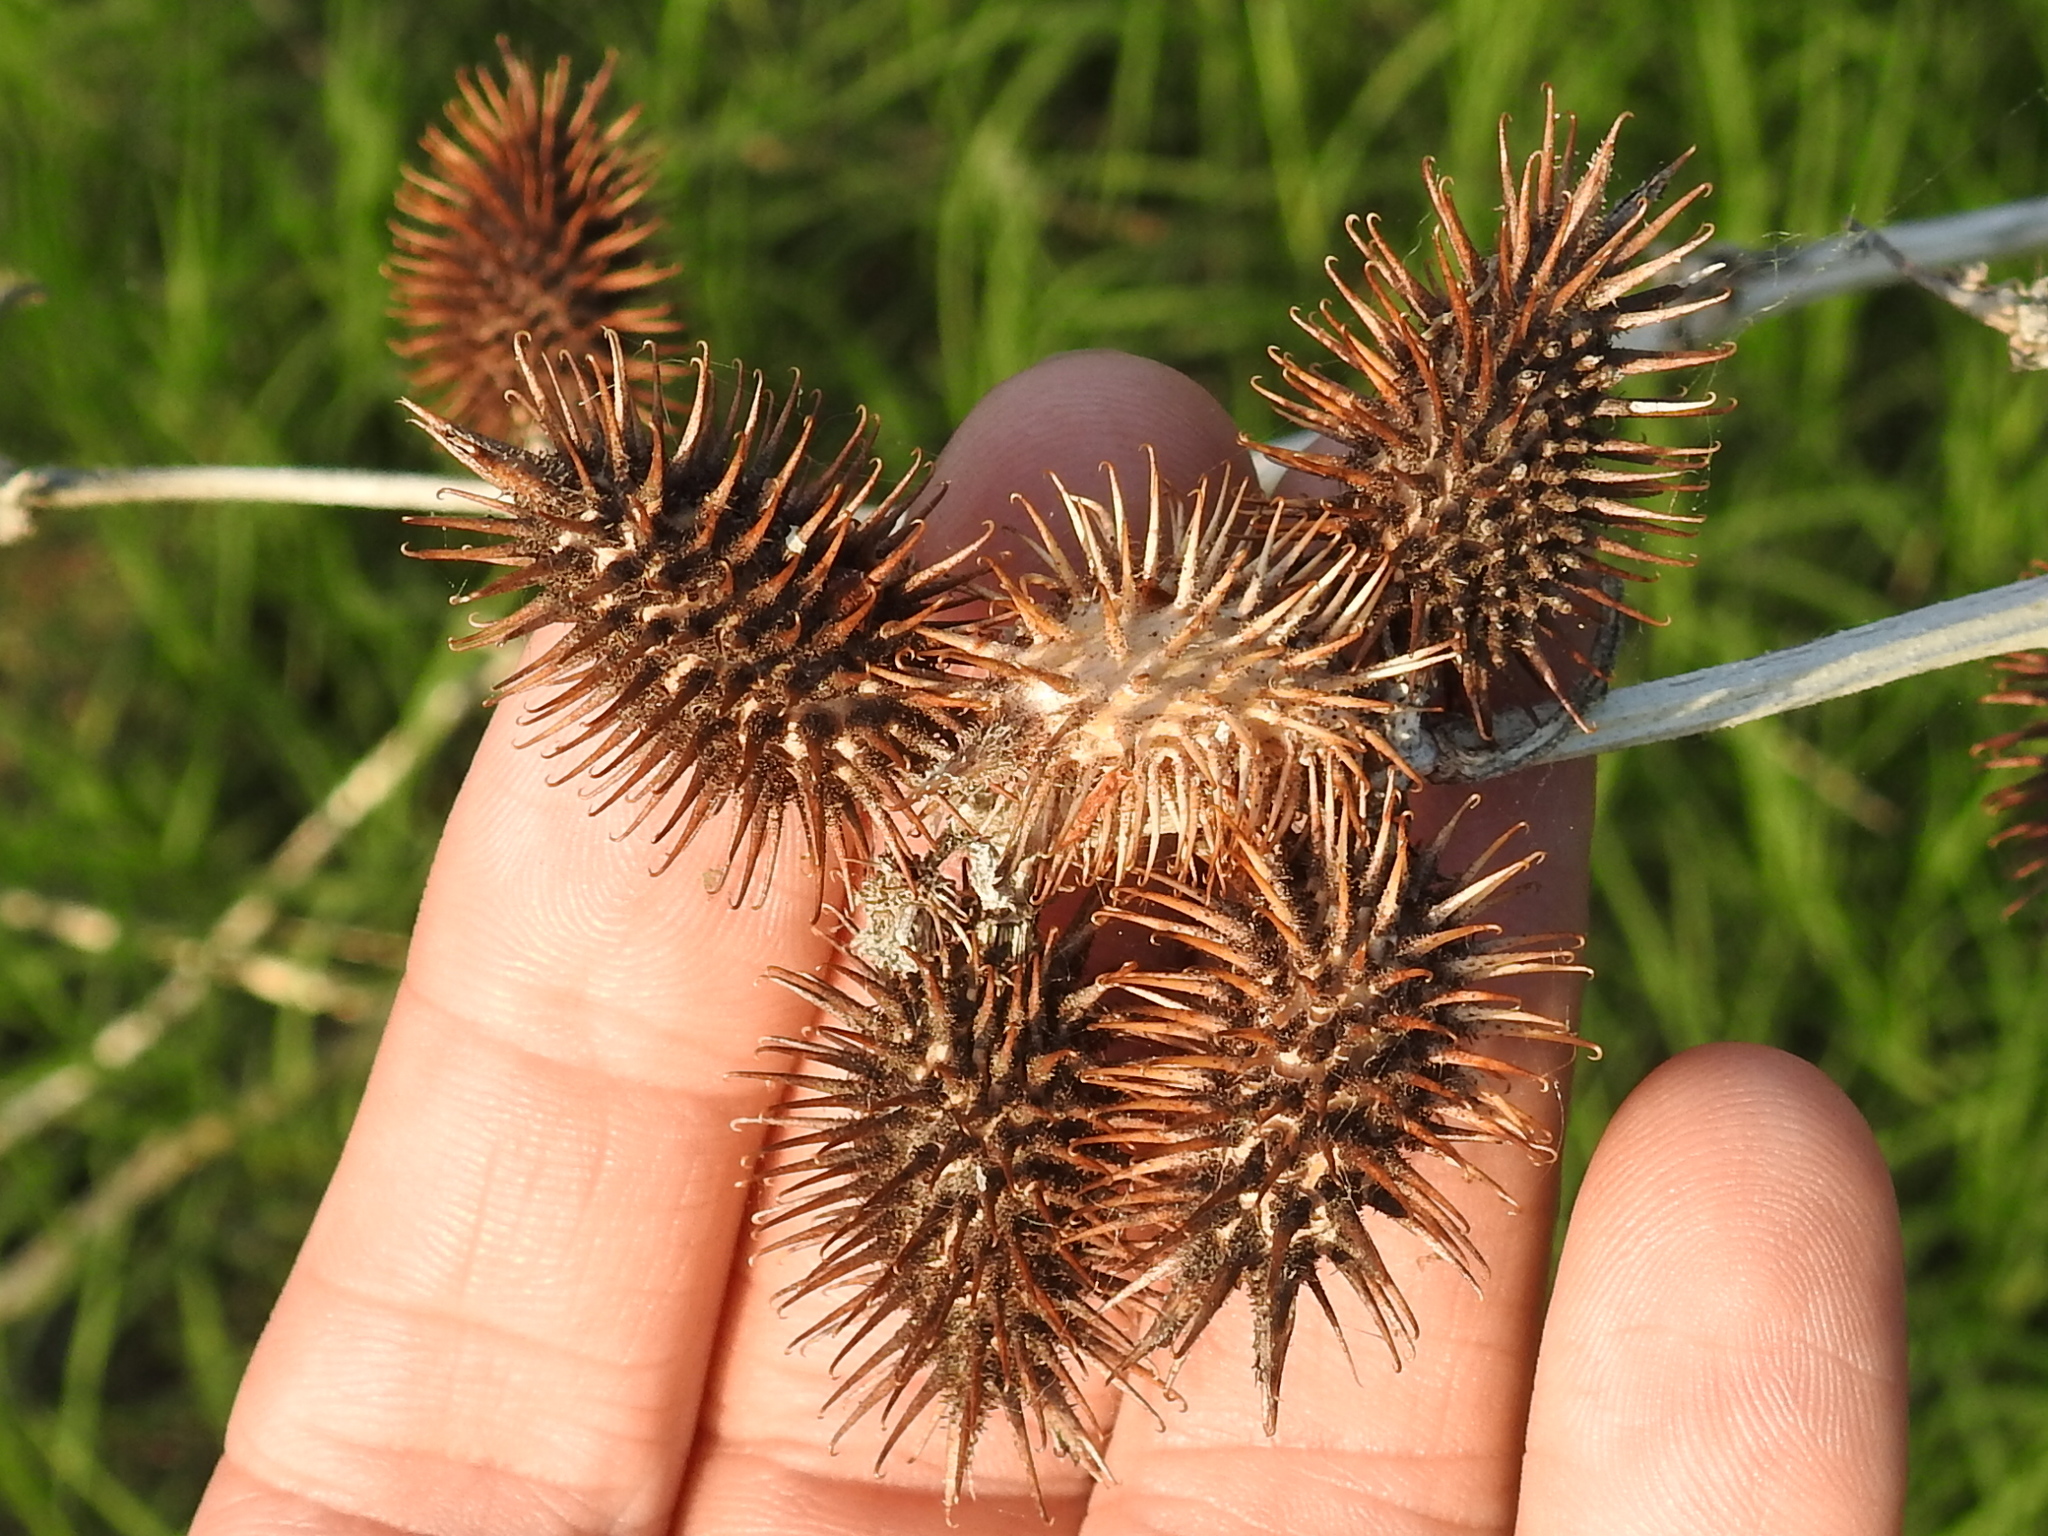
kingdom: Plantae
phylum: Tracheophyta
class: Magnoliopsida
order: Asterales
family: Asteraceae
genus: Xanthium
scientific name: Xanthium strumarium
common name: Rough cocklebur
